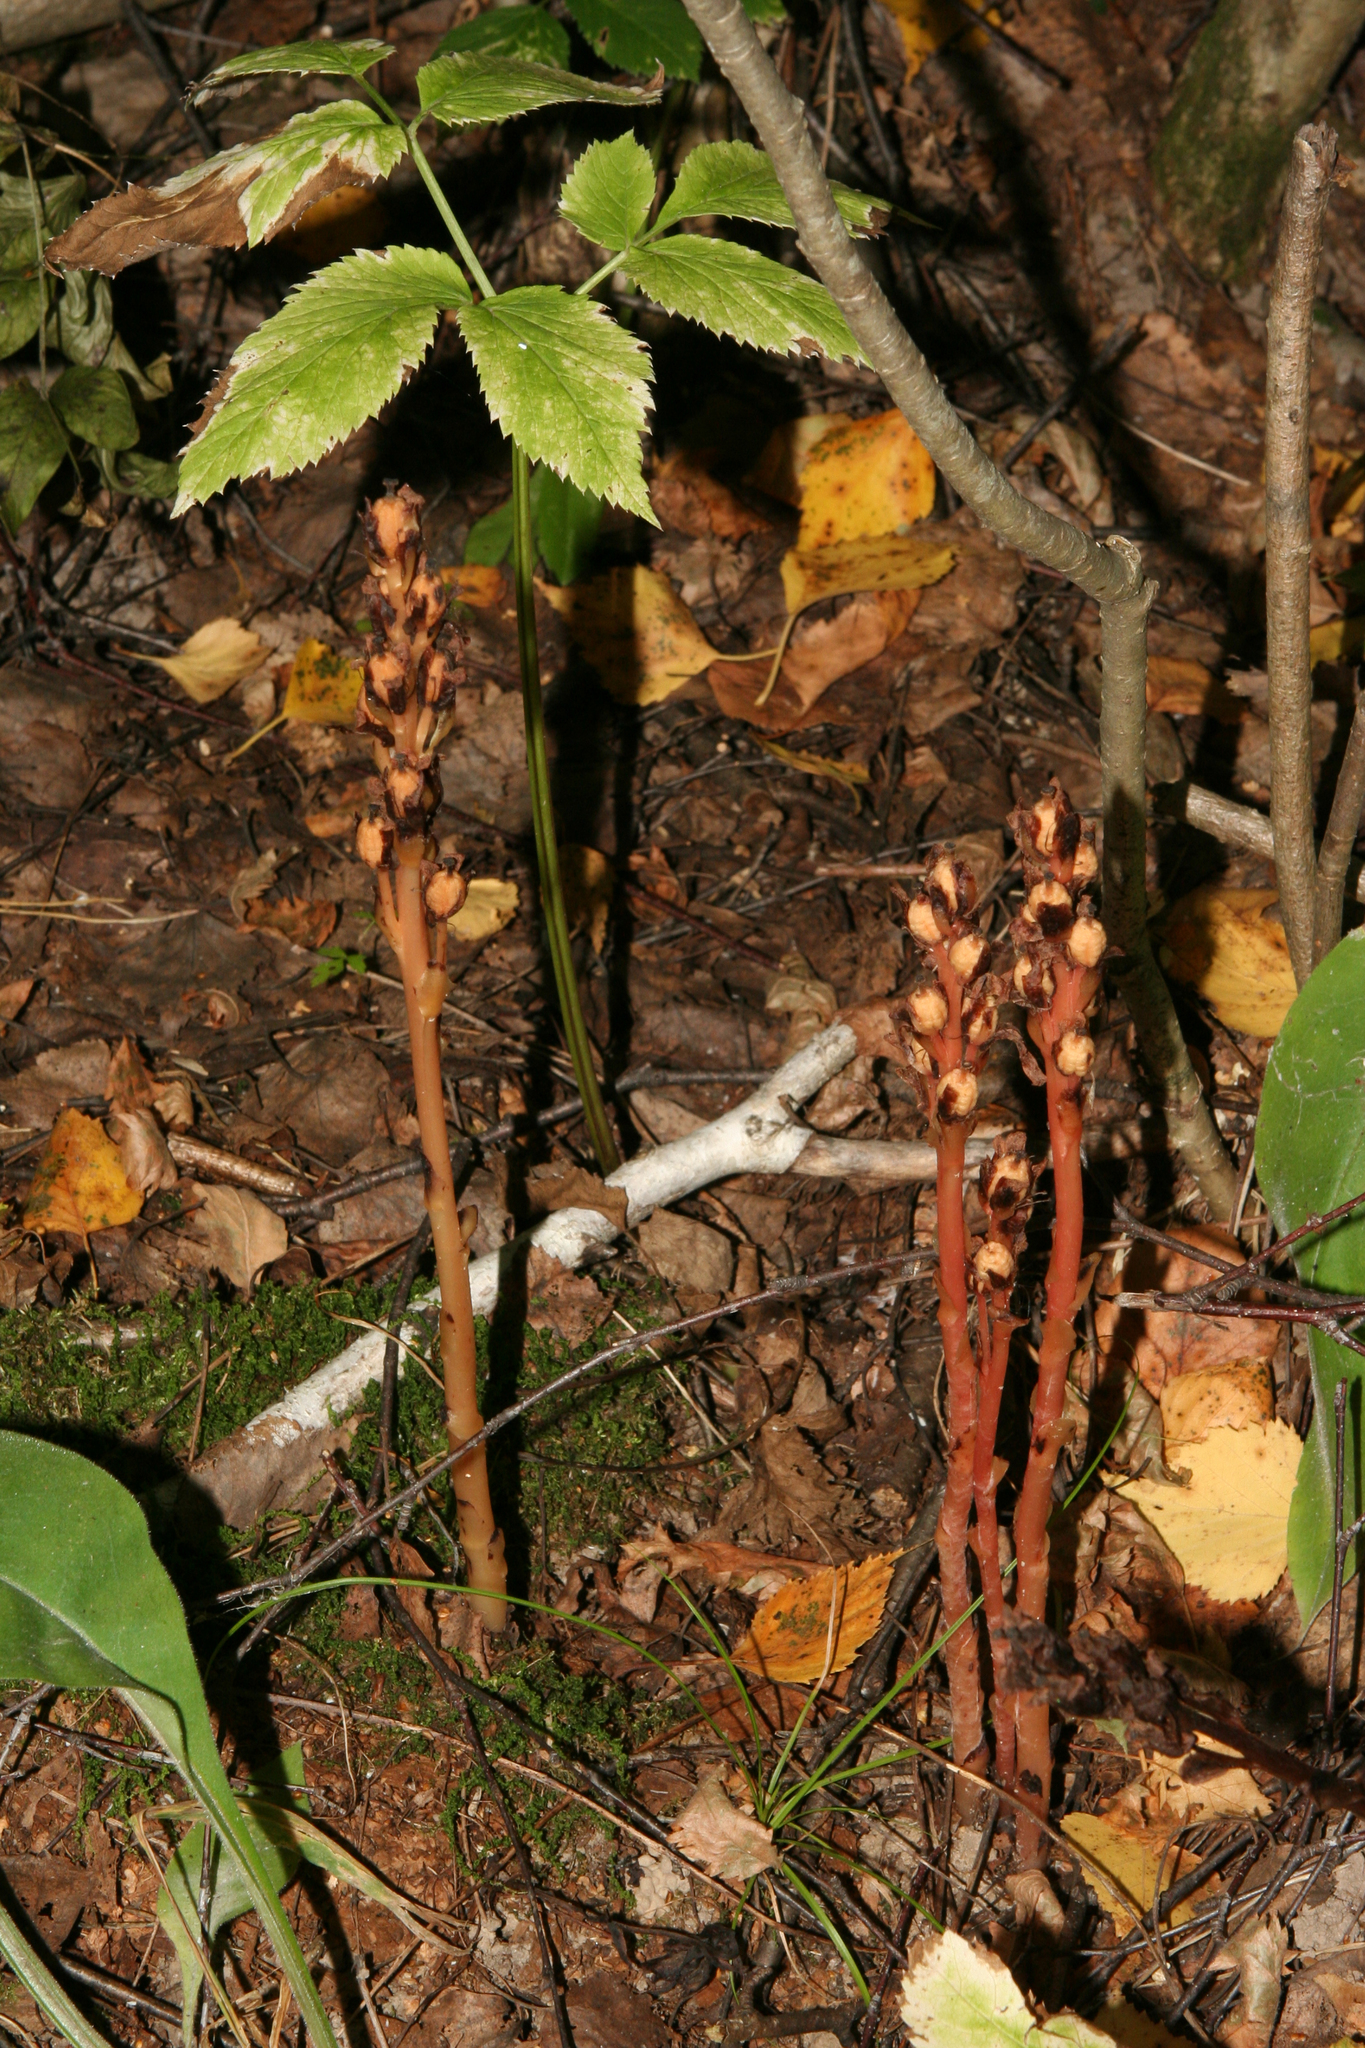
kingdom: Plantae
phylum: Tracheophyta
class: Magnoliopsida
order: Ericales
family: Ericaceae
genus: Hypopitys
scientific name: Hypopitys monotropa
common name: Yellow bird's-nest
